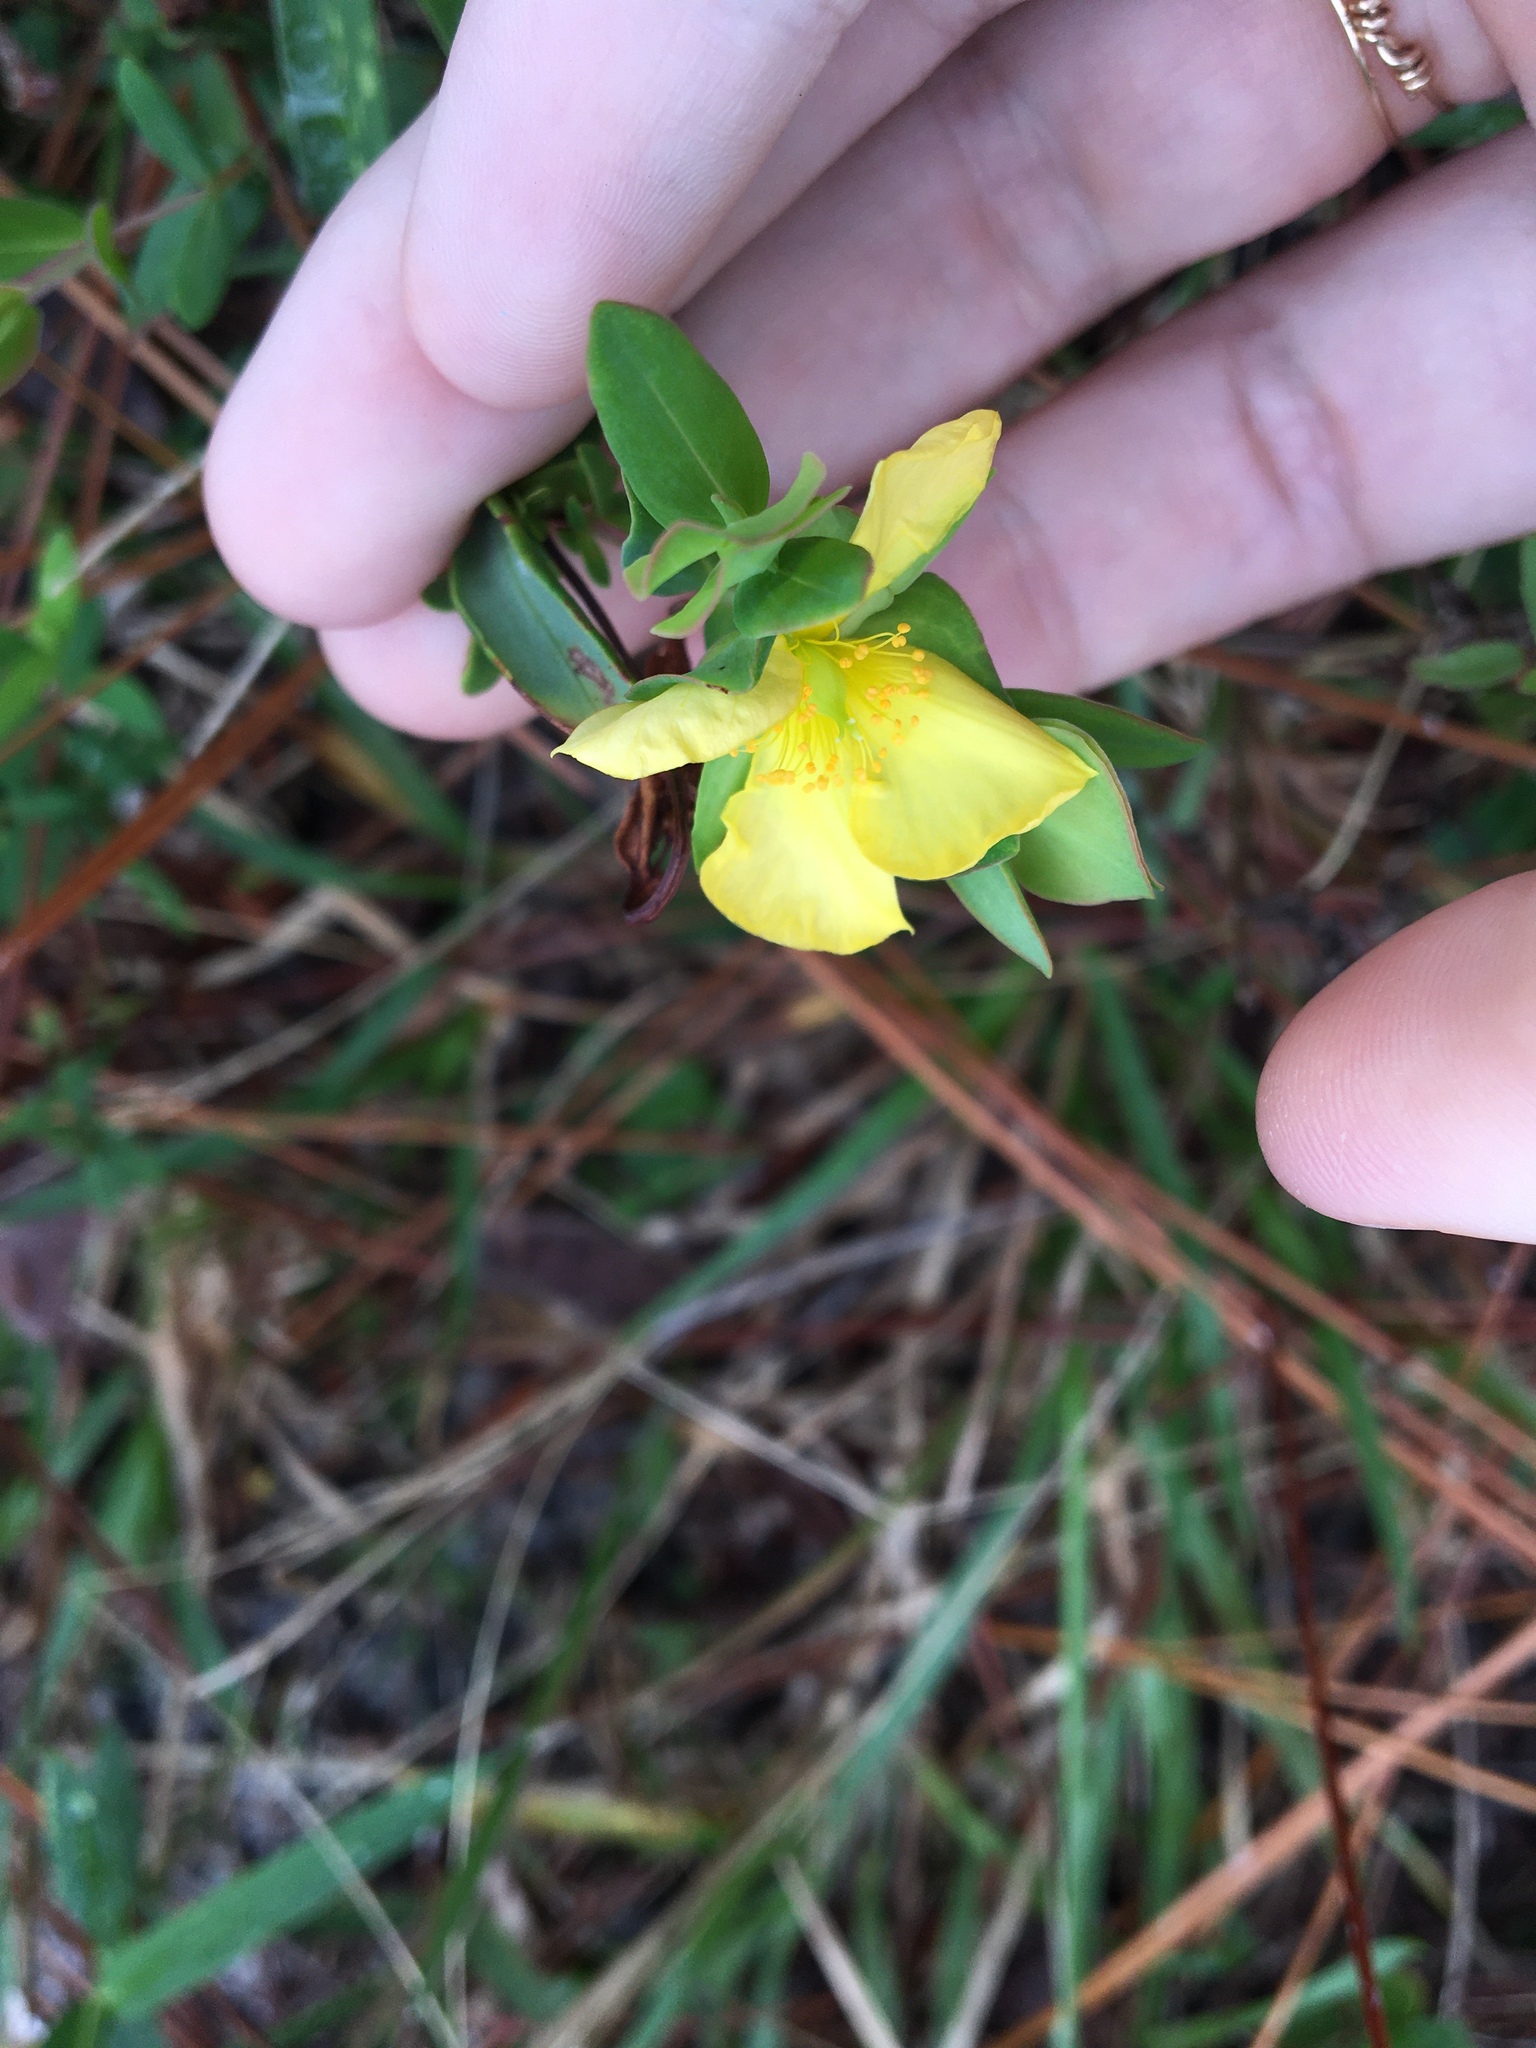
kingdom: Plantae
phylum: Tracheophyta
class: Magnoliopsida
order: Malpighiales
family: Hypericaceae
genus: Hypericum
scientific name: Hypericum crux-andreae
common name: St.-peter's-wort
